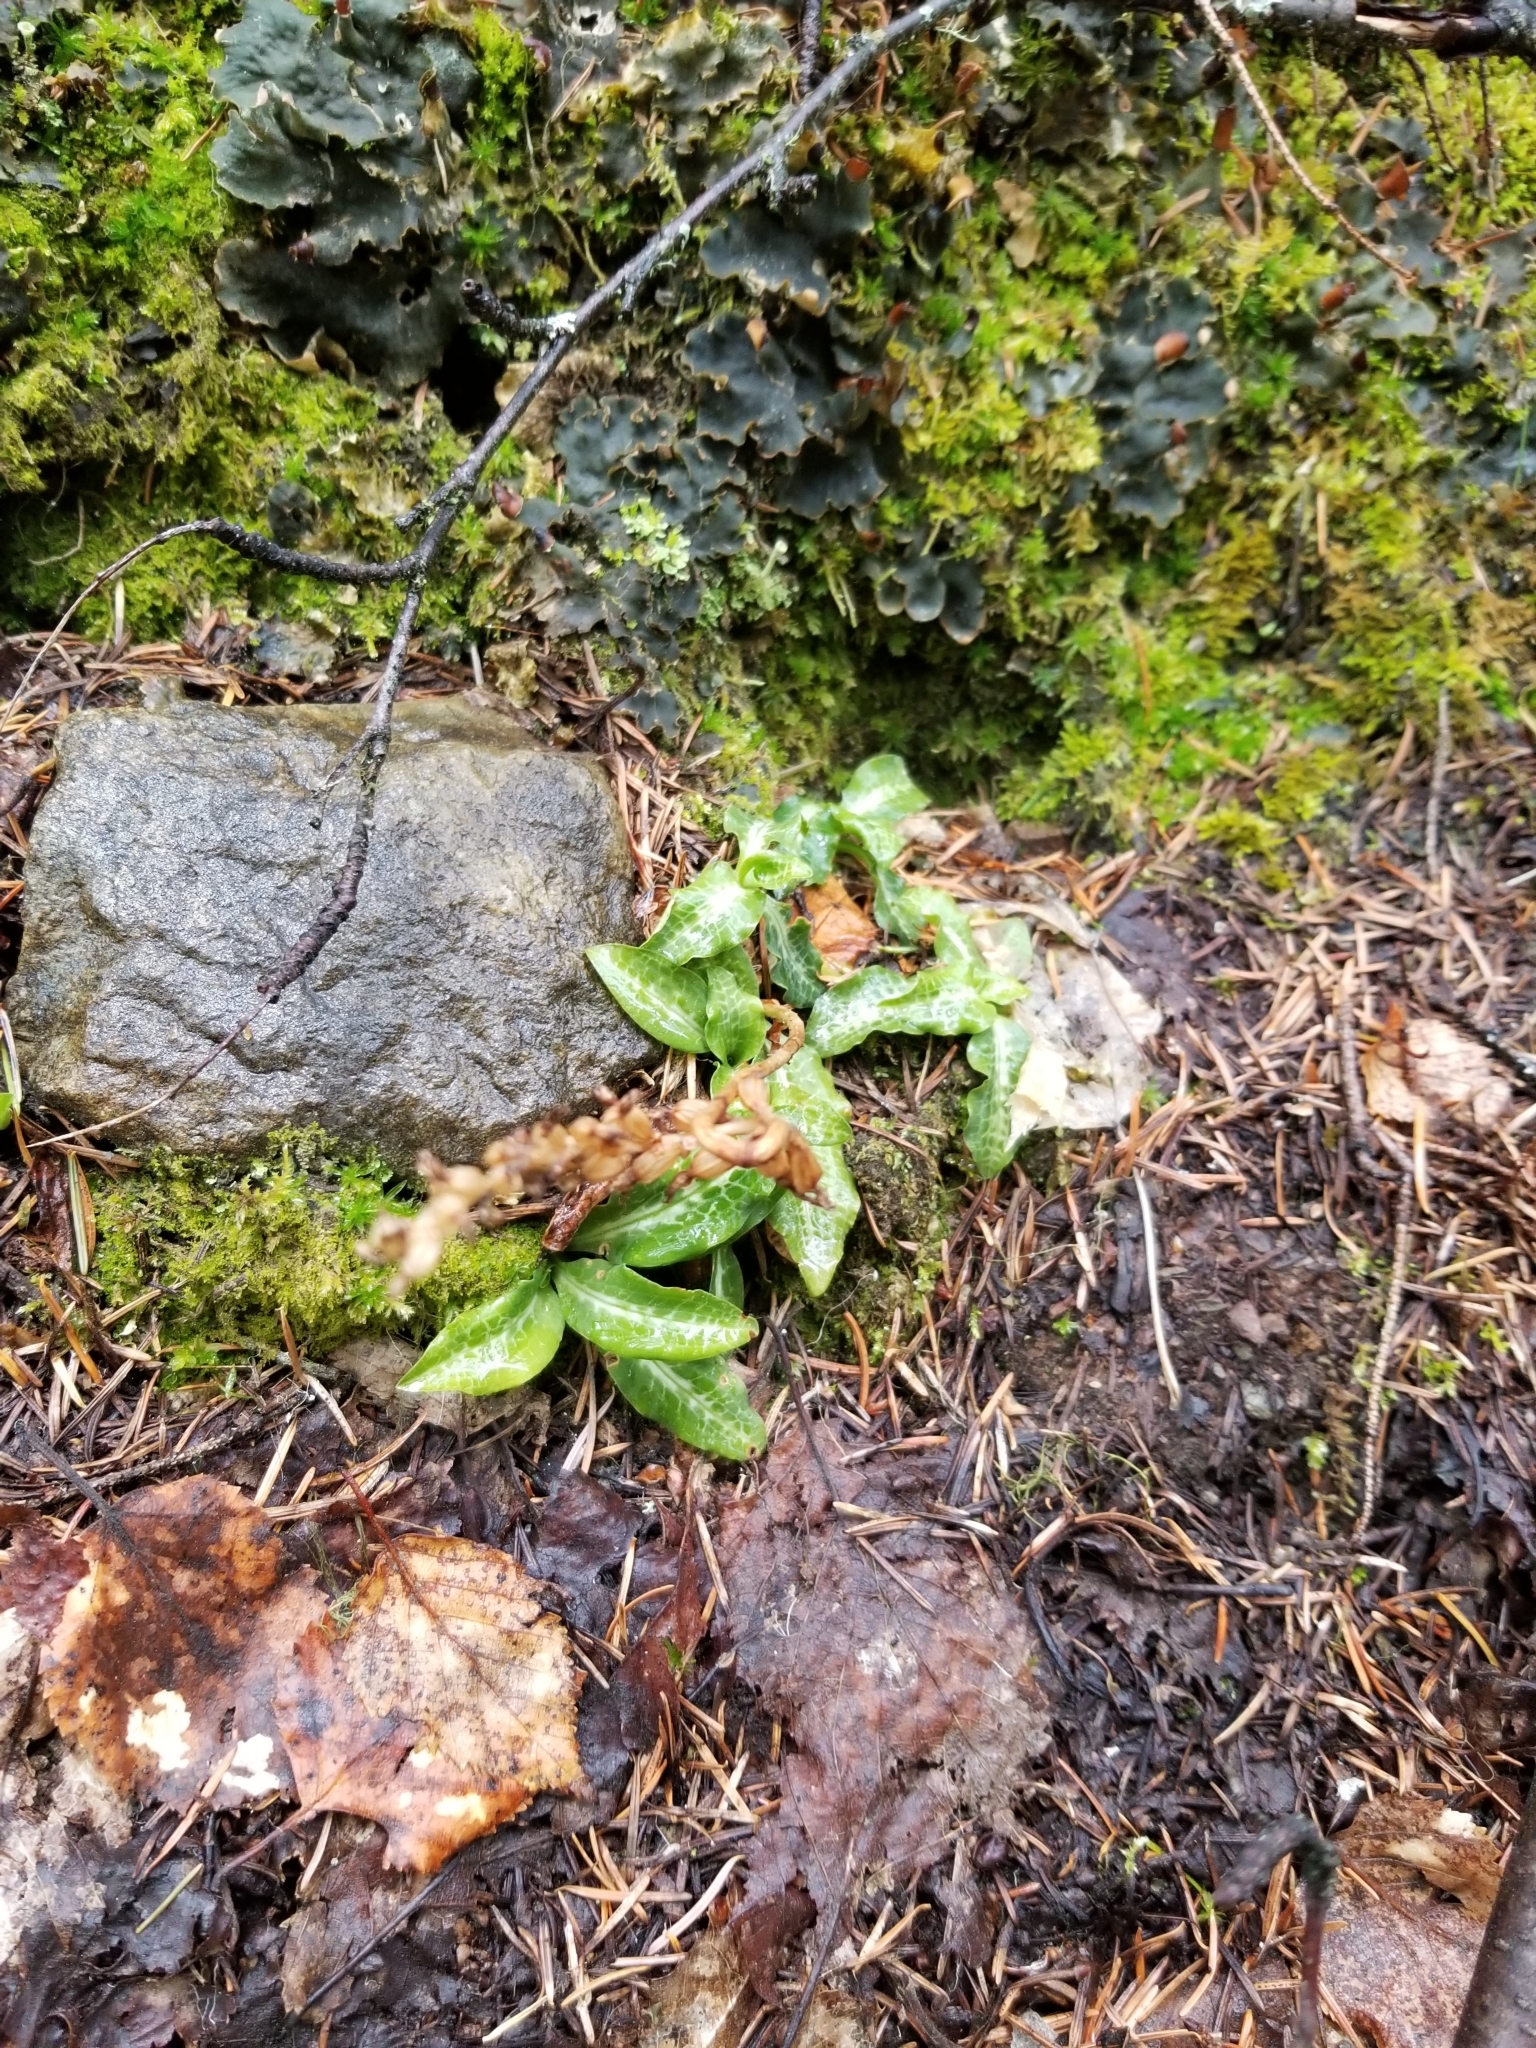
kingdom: Plantae
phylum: Tracheophyta
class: Liliopsida
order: Asparagales
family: Orchidaceae
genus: Goodyera
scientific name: Goodyera oblongifolia
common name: Giant rattlesnake-plantain
